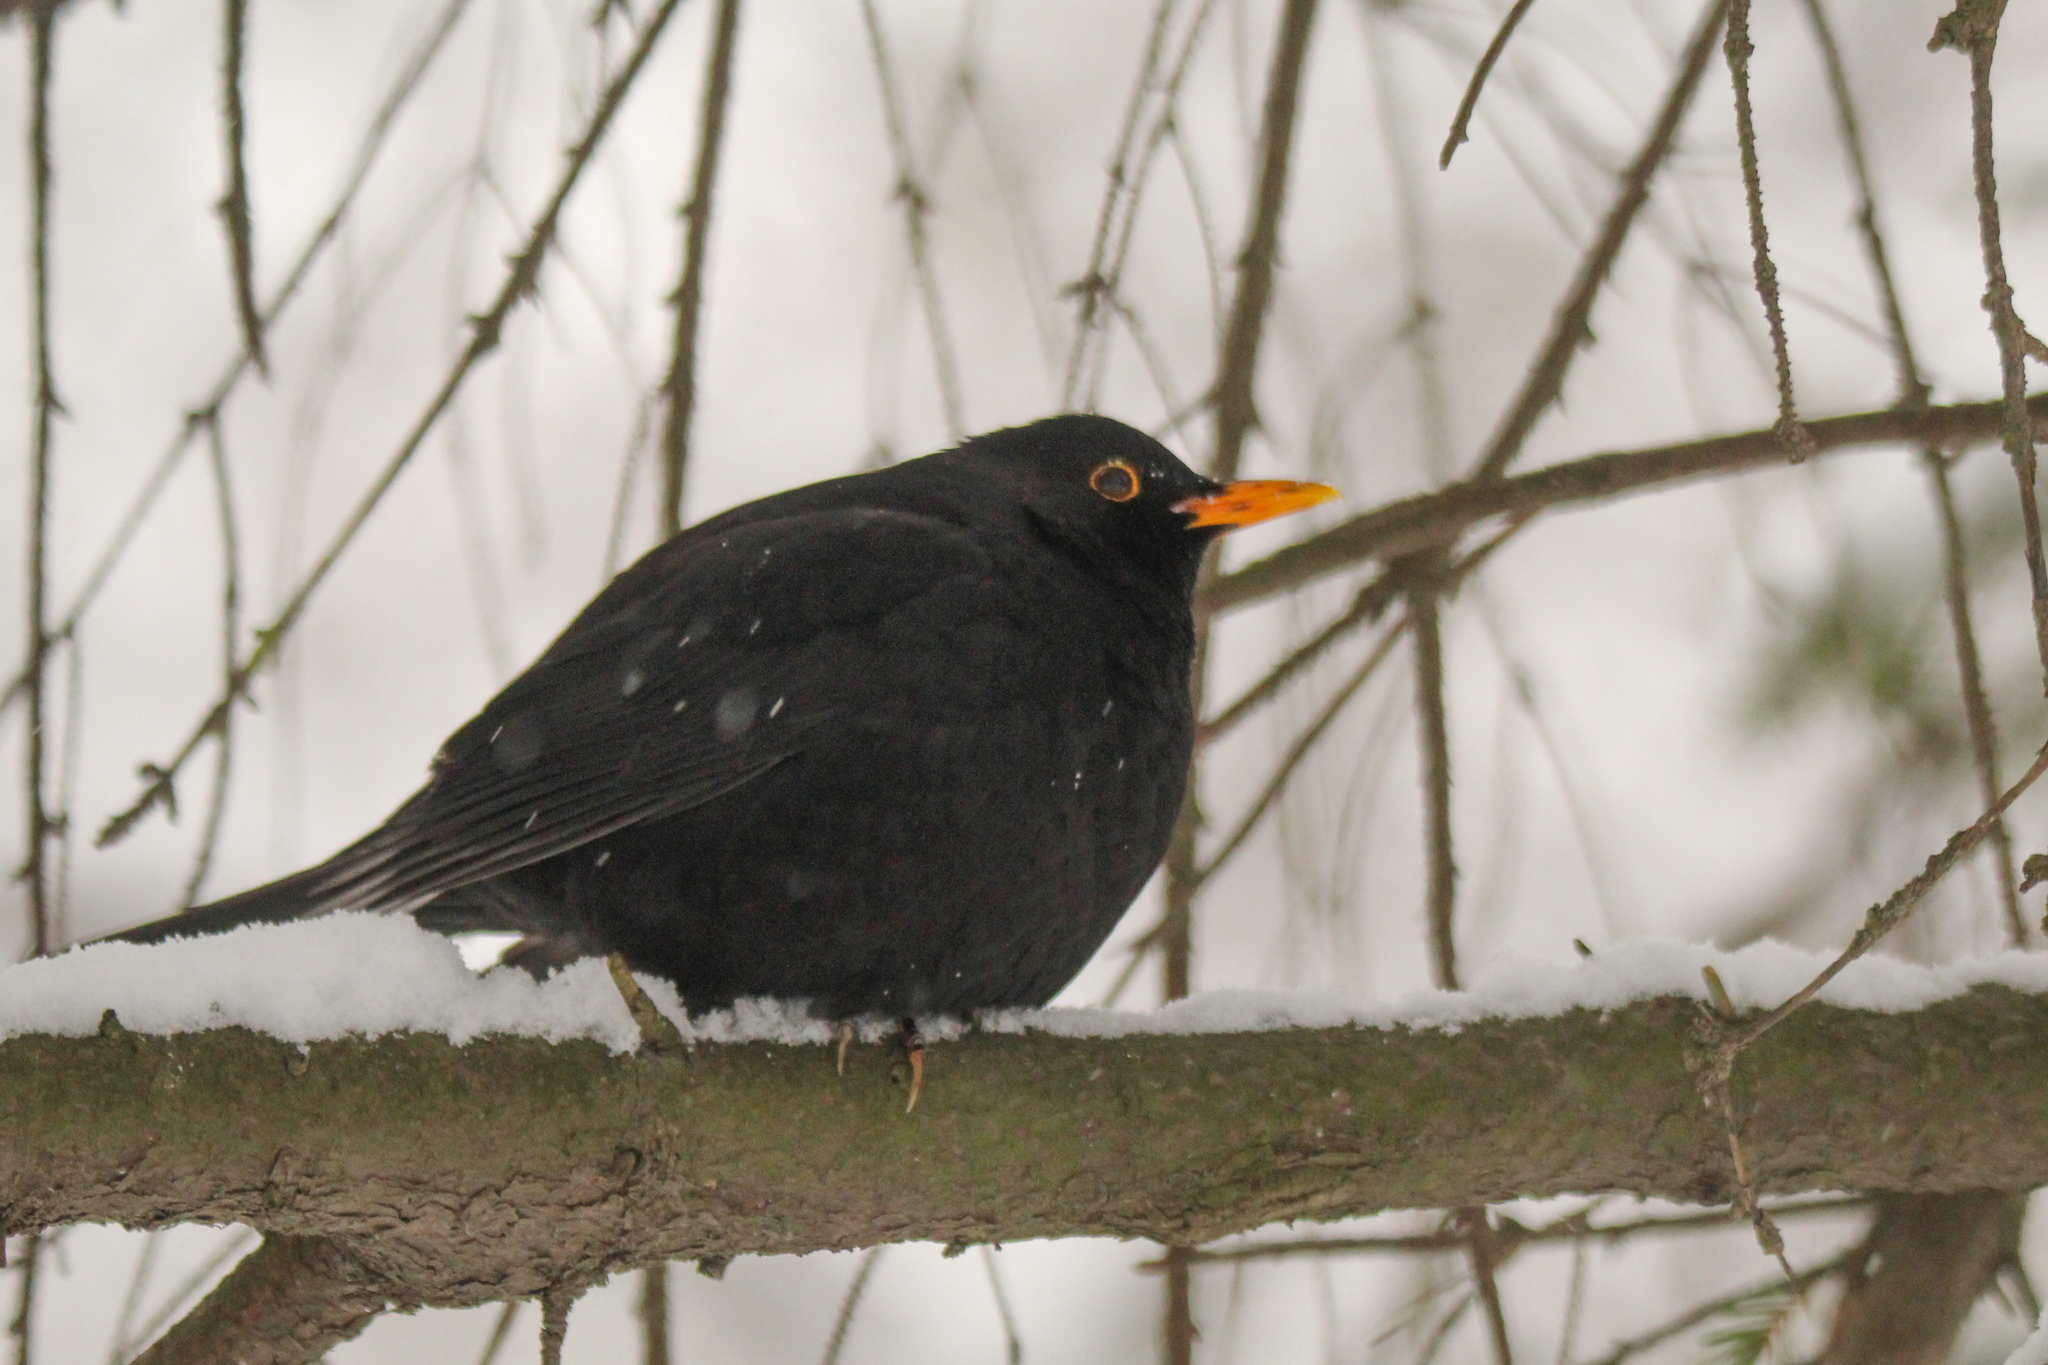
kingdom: Animalia
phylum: Chordata
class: Aves
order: Passeriformes
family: Turdidae
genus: Turdus
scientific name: Turdus merula
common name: Common blackbird
